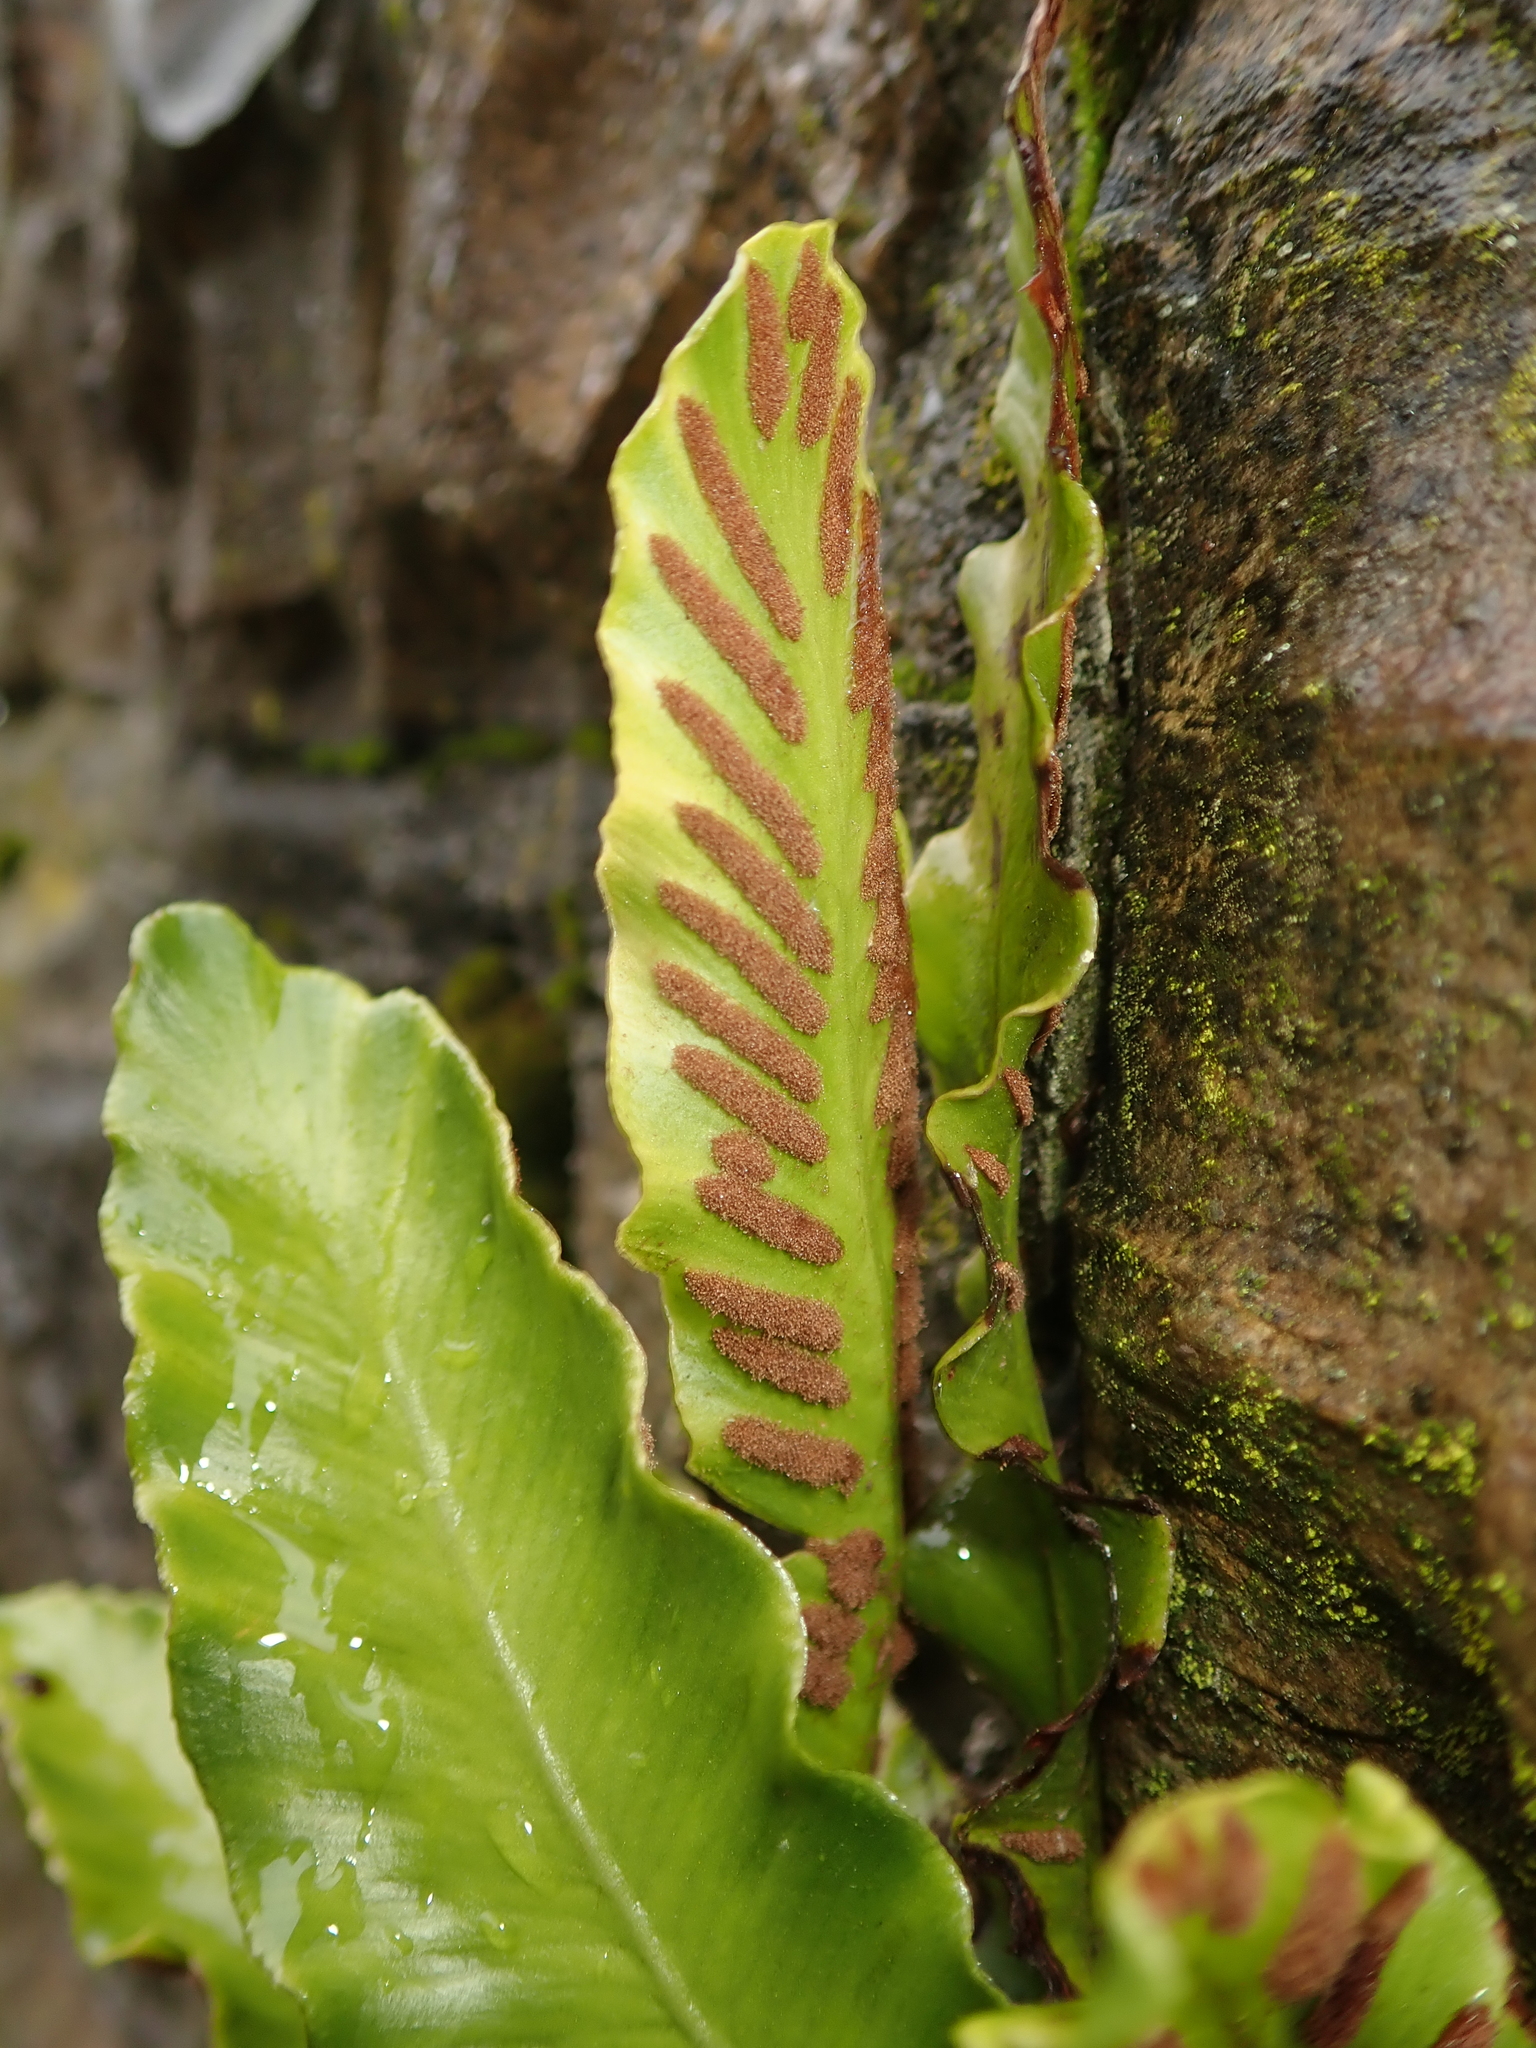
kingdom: Plantae
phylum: Tracheophyta
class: Polypodiopsida
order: Polypodiales
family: Aspleniaceae
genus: Asplenium
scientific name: Asplenium scolopendrium
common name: Hart's-tongue fern
